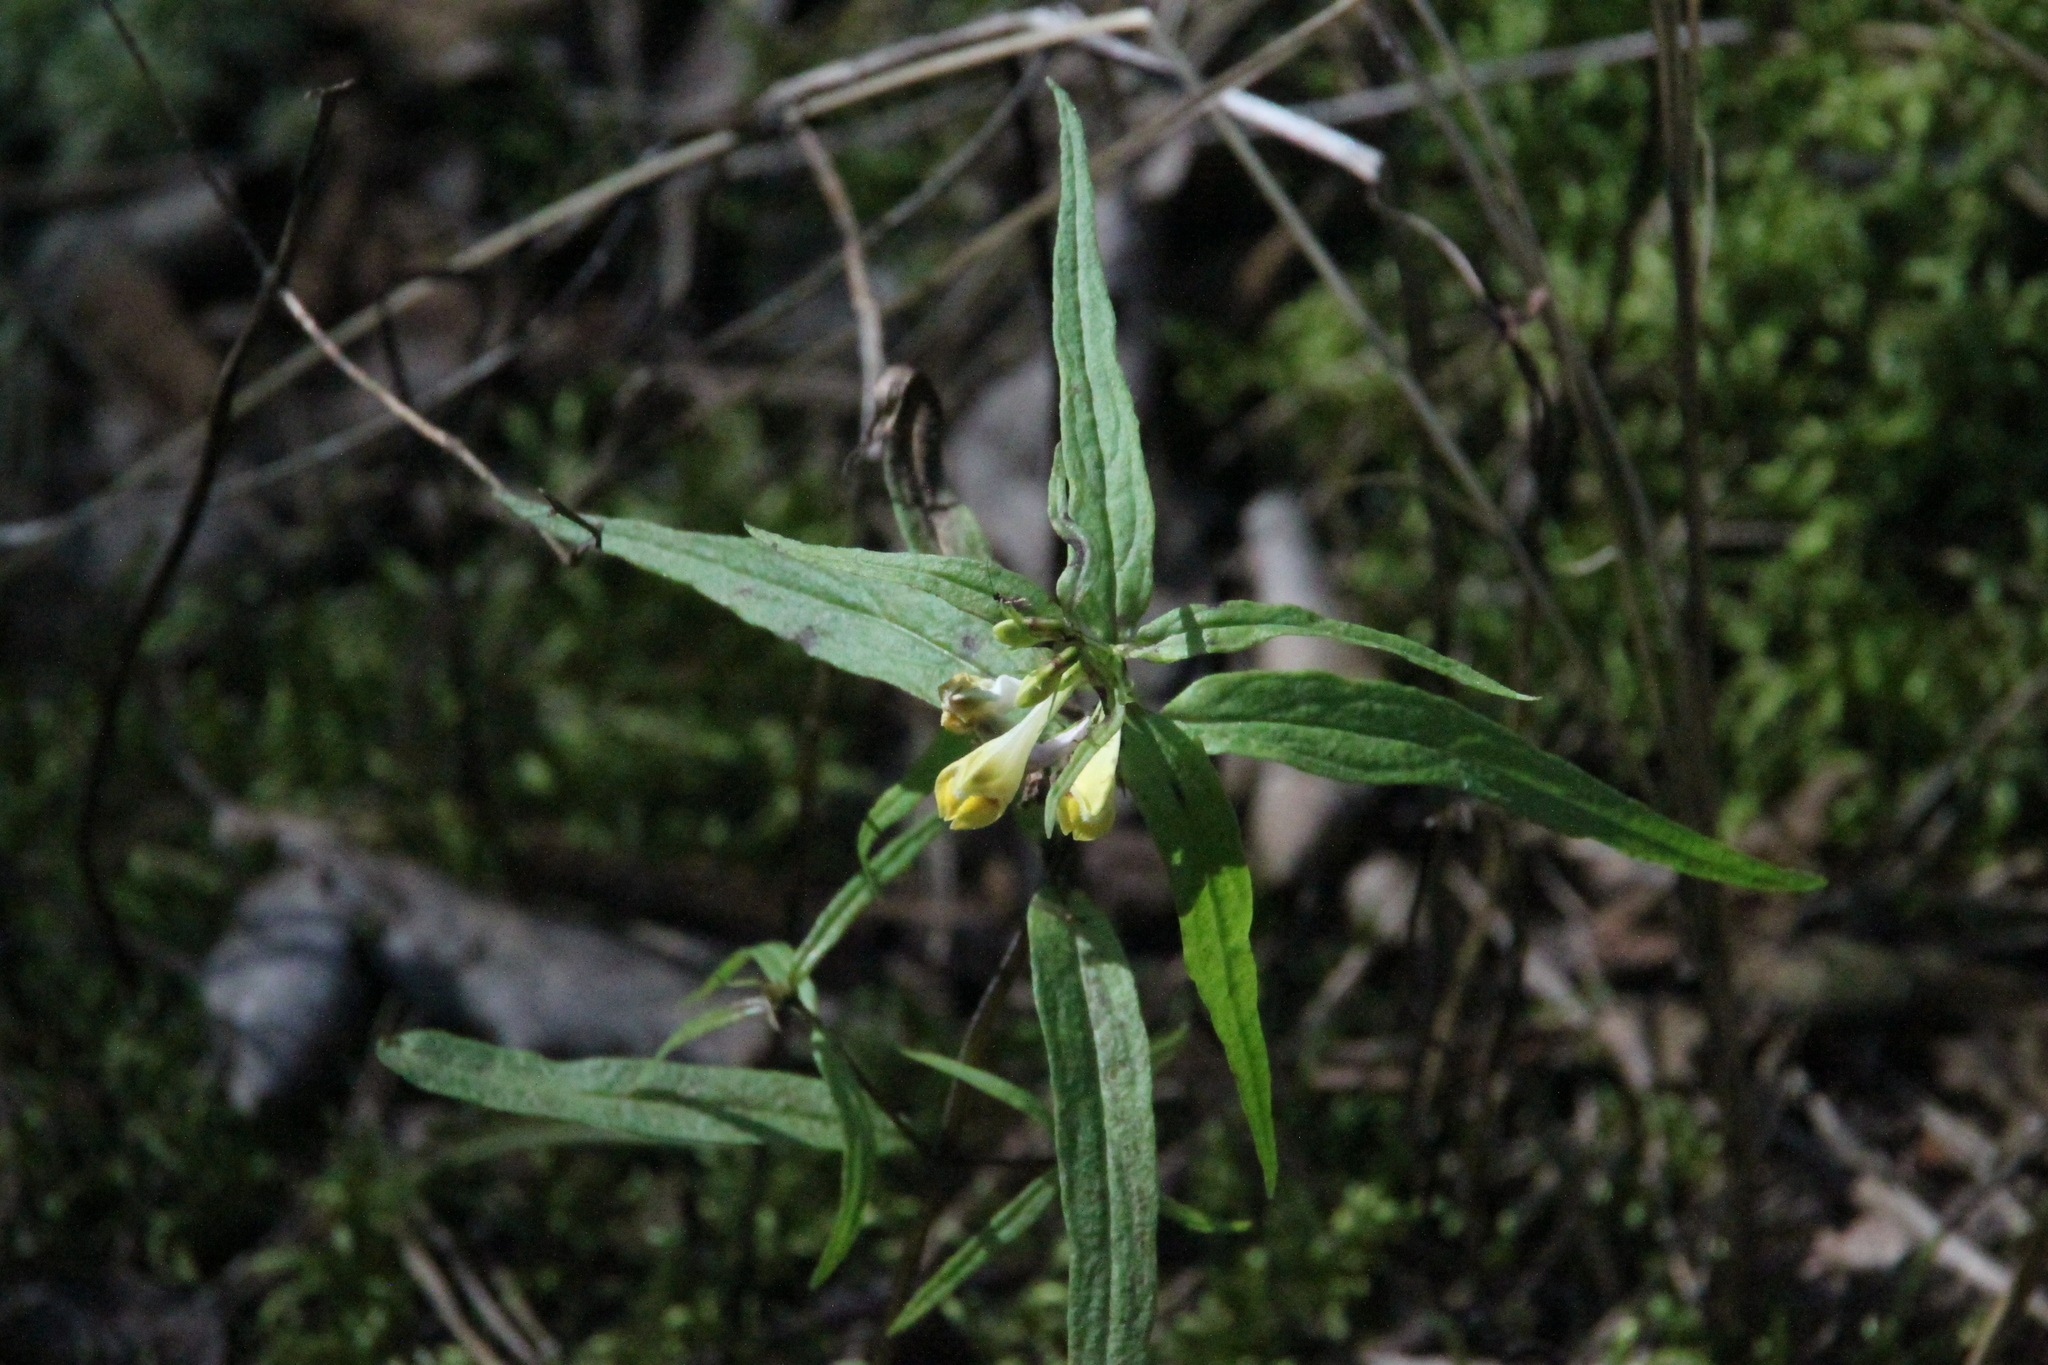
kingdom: Plantae
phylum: Tracheophyta
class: Magnoliopsida
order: Lamiales
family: Orobanchaceae
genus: Melampyrum
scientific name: Melampyrum pratense
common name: Common cow-wheat
